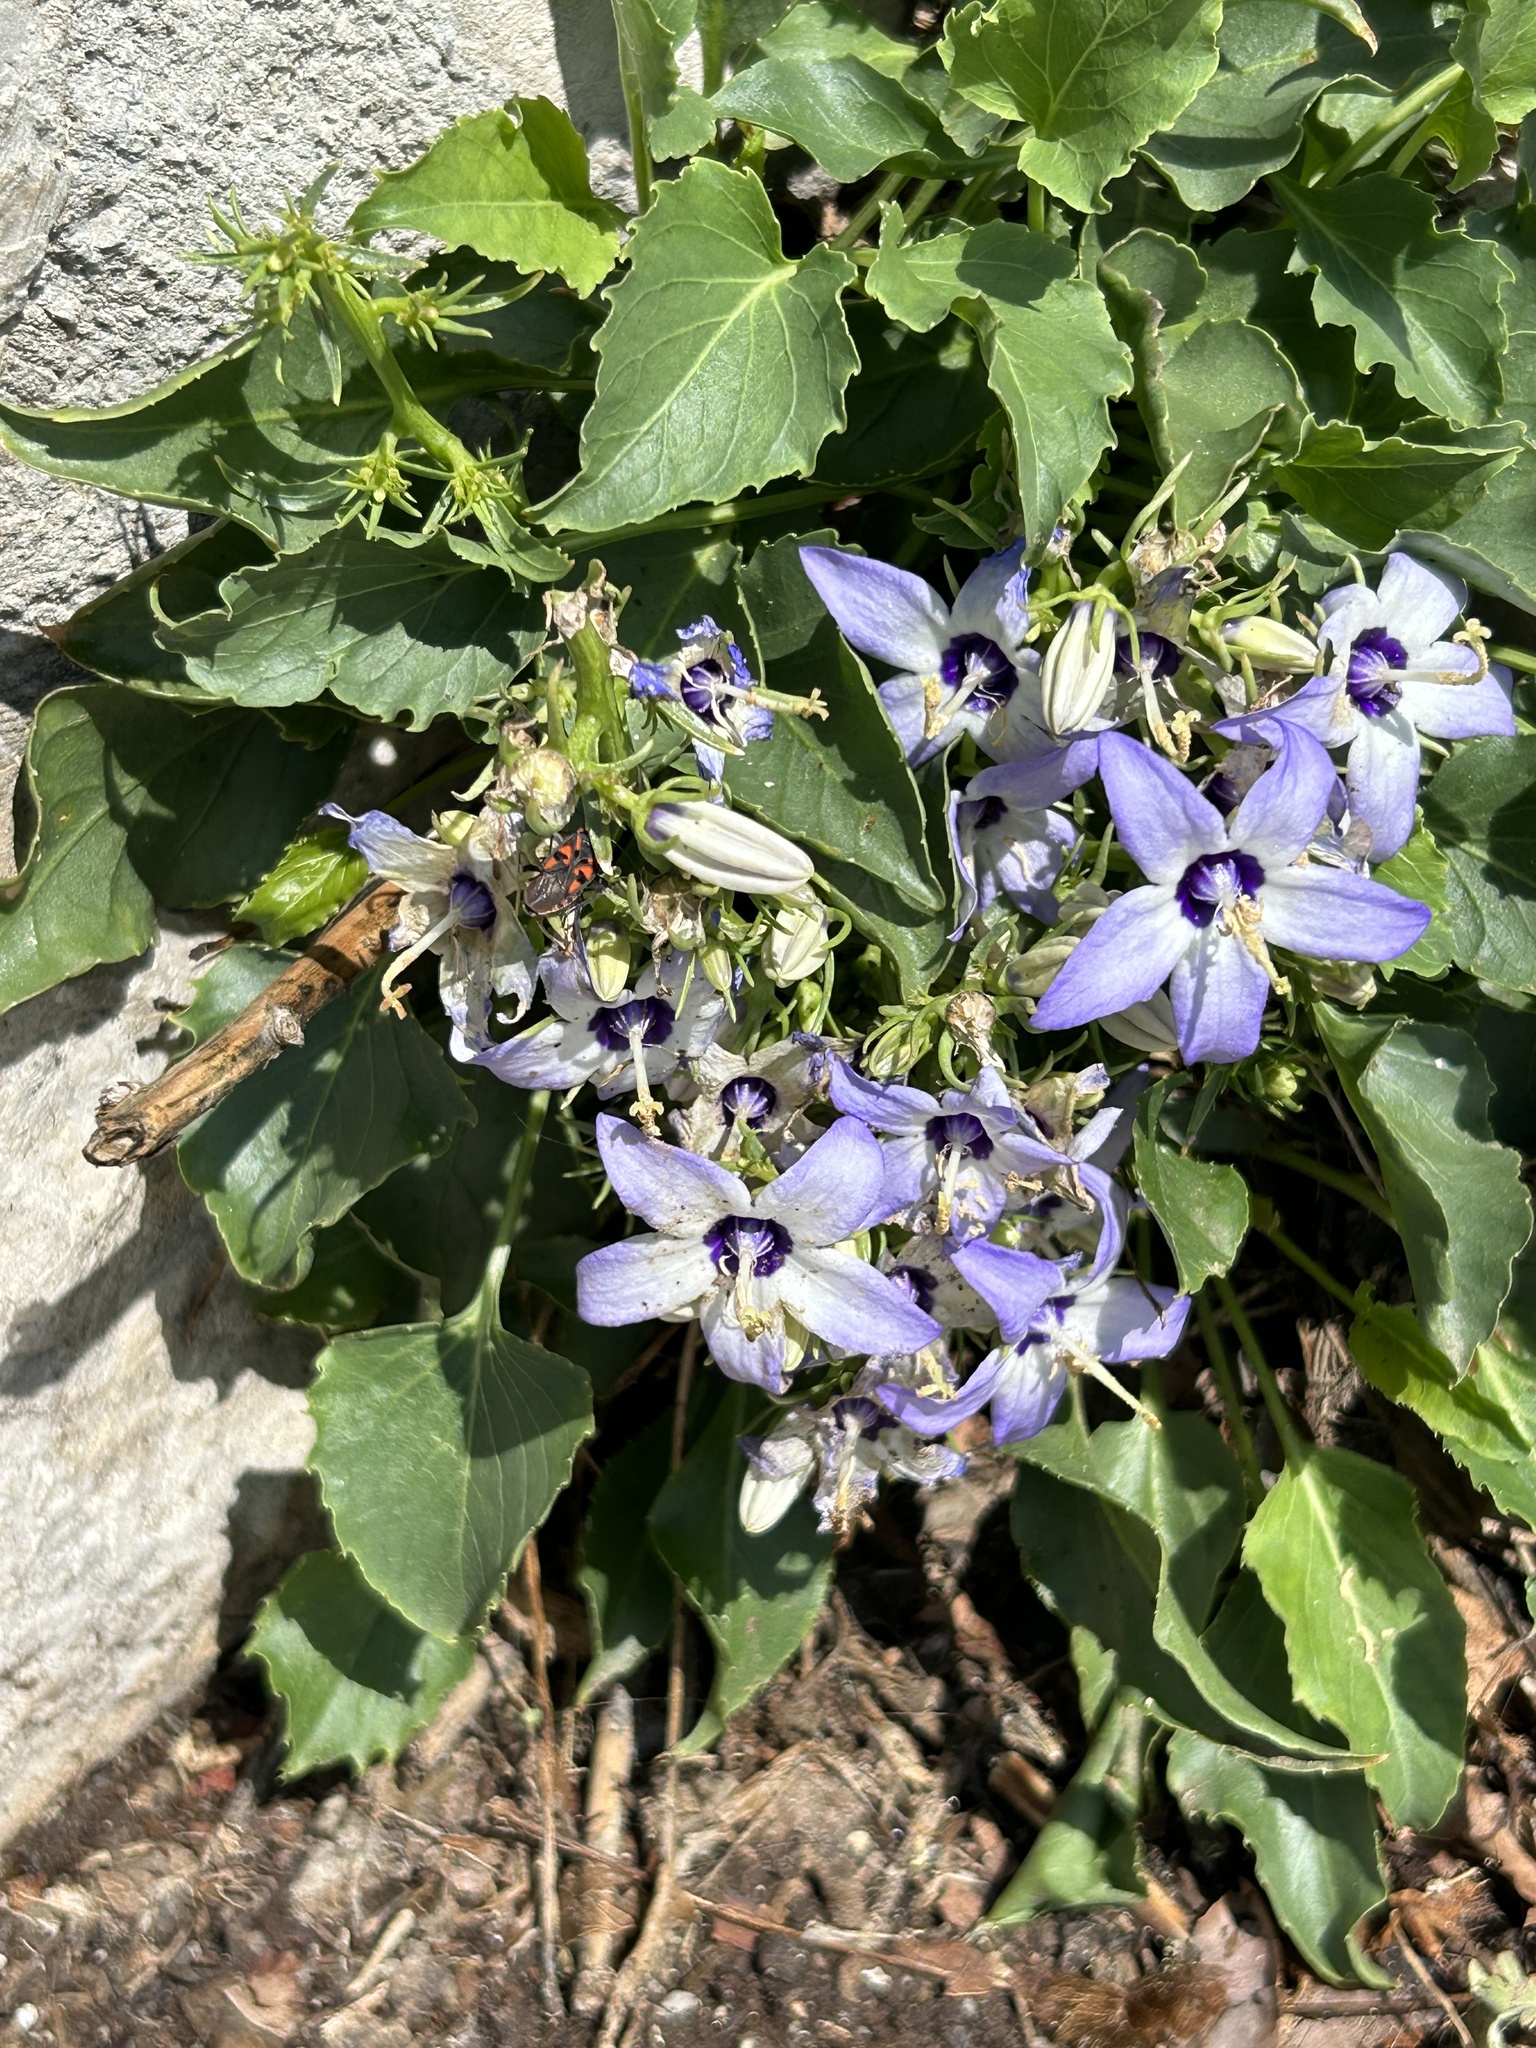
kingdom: Plantae
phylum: Tracheophyta
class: Magnoliopsida
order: Asterales
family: Campanulaceae
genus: Campanula
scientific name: Campanula versicolor
